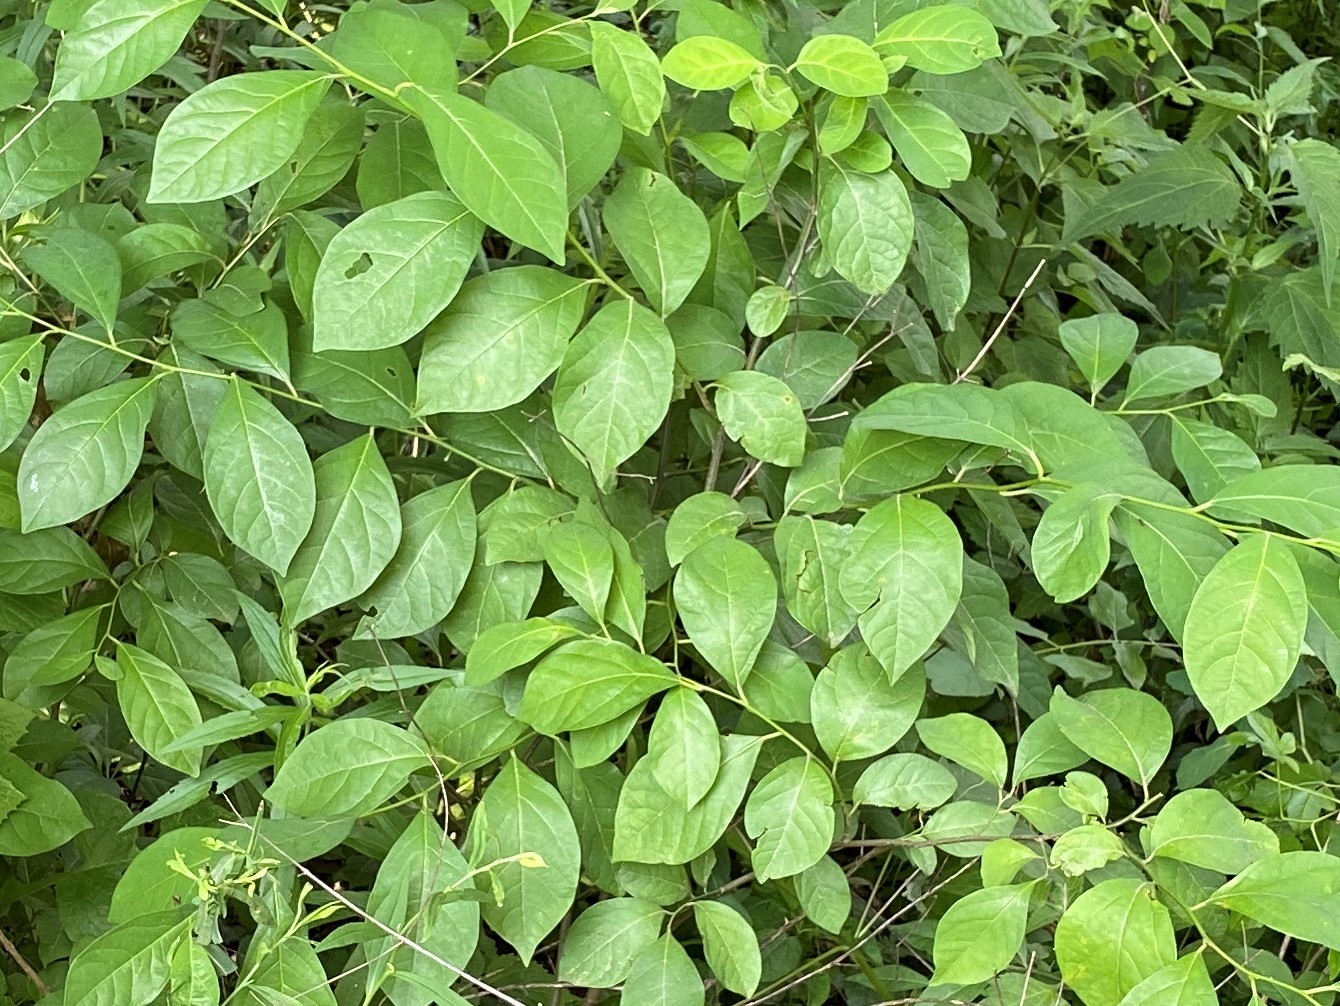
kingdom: Plantae
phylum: Tracheophyta
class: Magnoliopsida
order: Laurales
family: Lauraceae
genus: Lindera
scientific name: Lindera benzoin
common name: Spicebush
